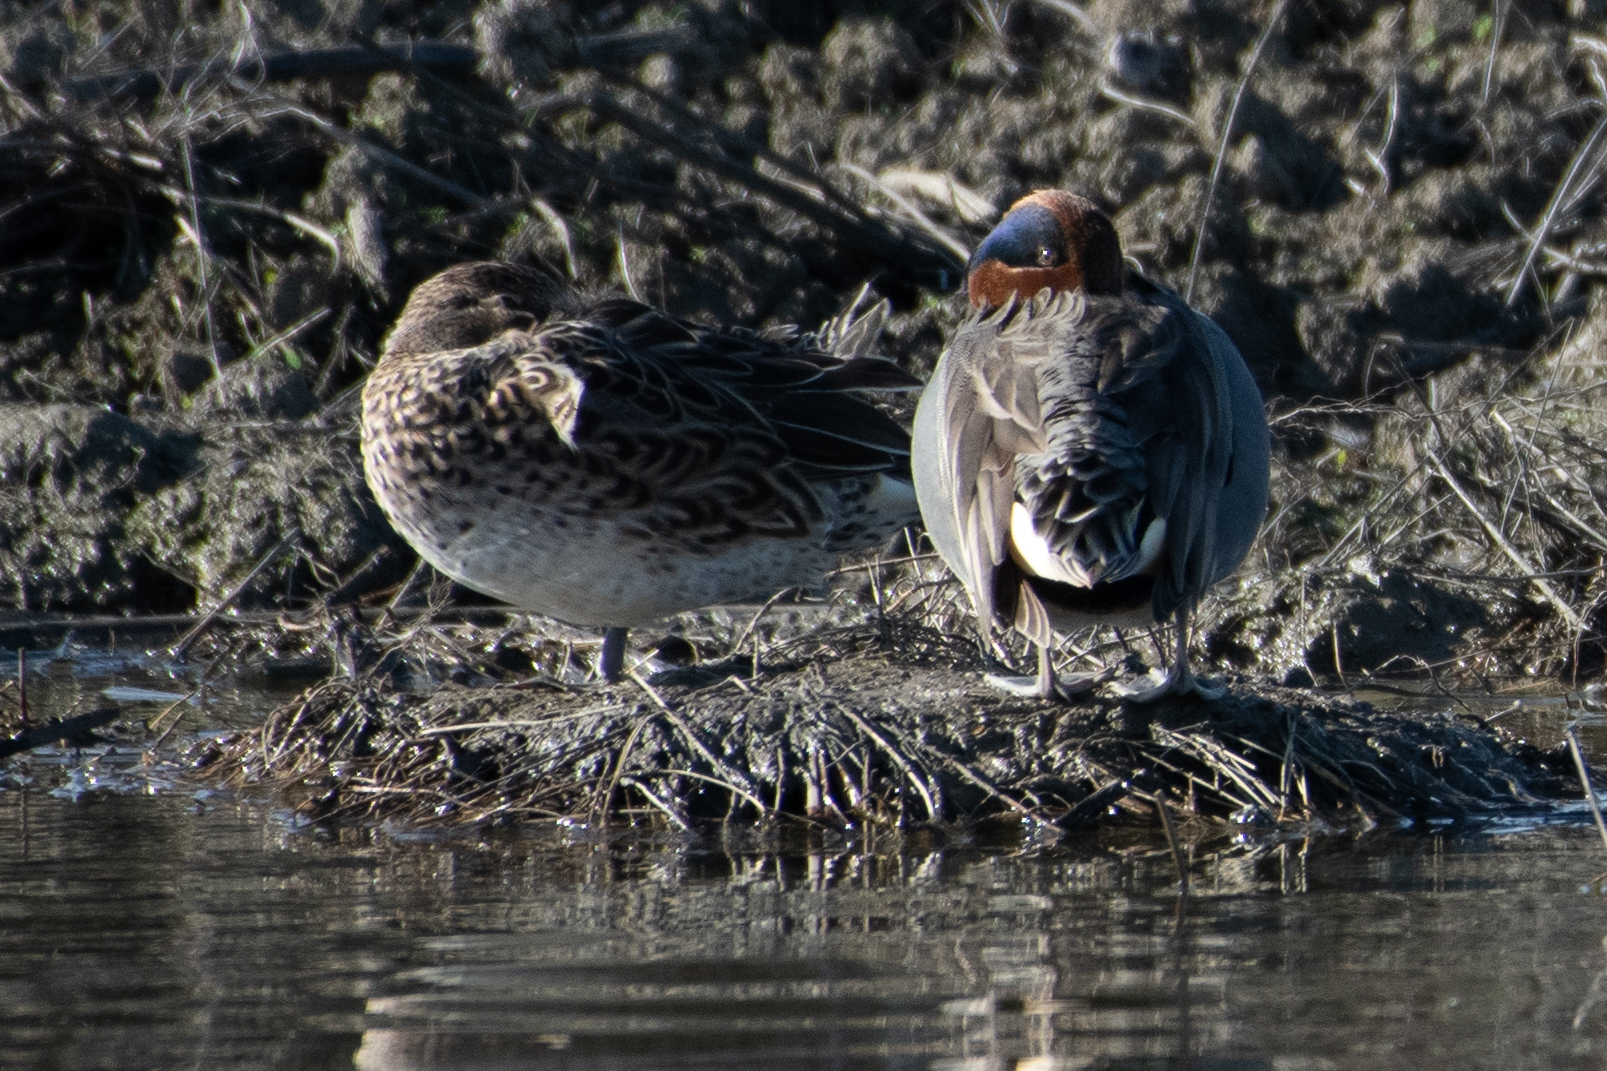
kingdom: Animalia
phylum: Chordata
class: Aves
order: Anseriformes
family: Anatidae
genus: Anas
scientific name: Anas crecca
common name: Eurasian teal
